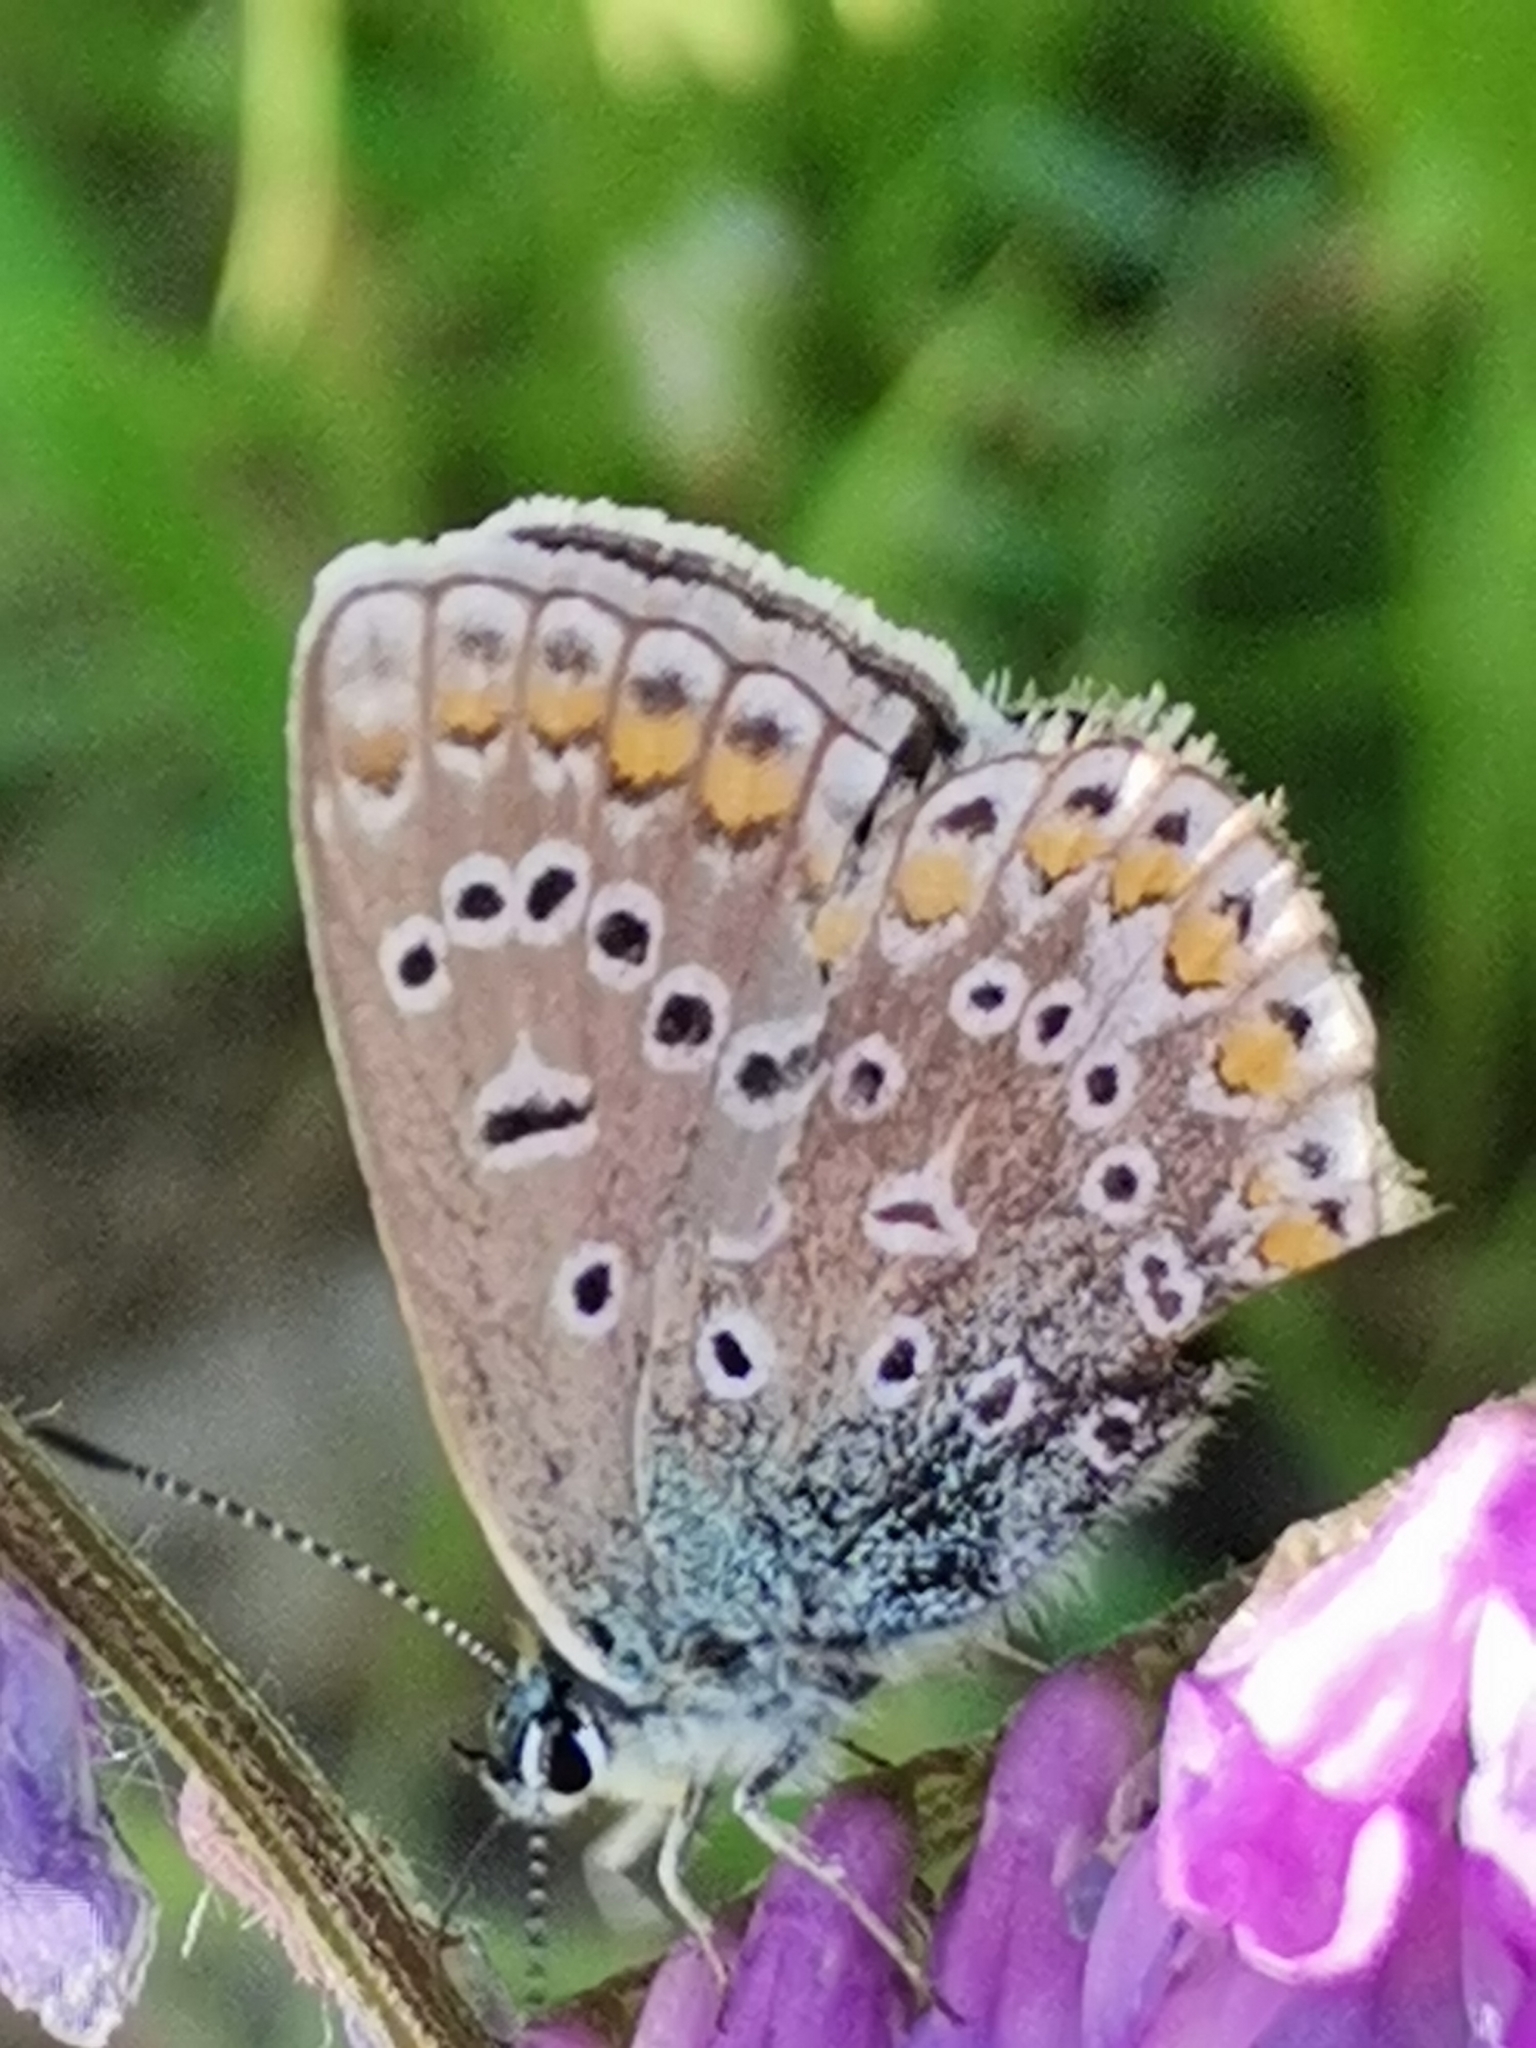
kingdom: Animalia
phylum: Arthropoda
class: Insecta
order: Lepidoptera
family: Lycaenidae
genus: Polyommatus
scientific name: Polyommatus icarus
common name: Common blue
